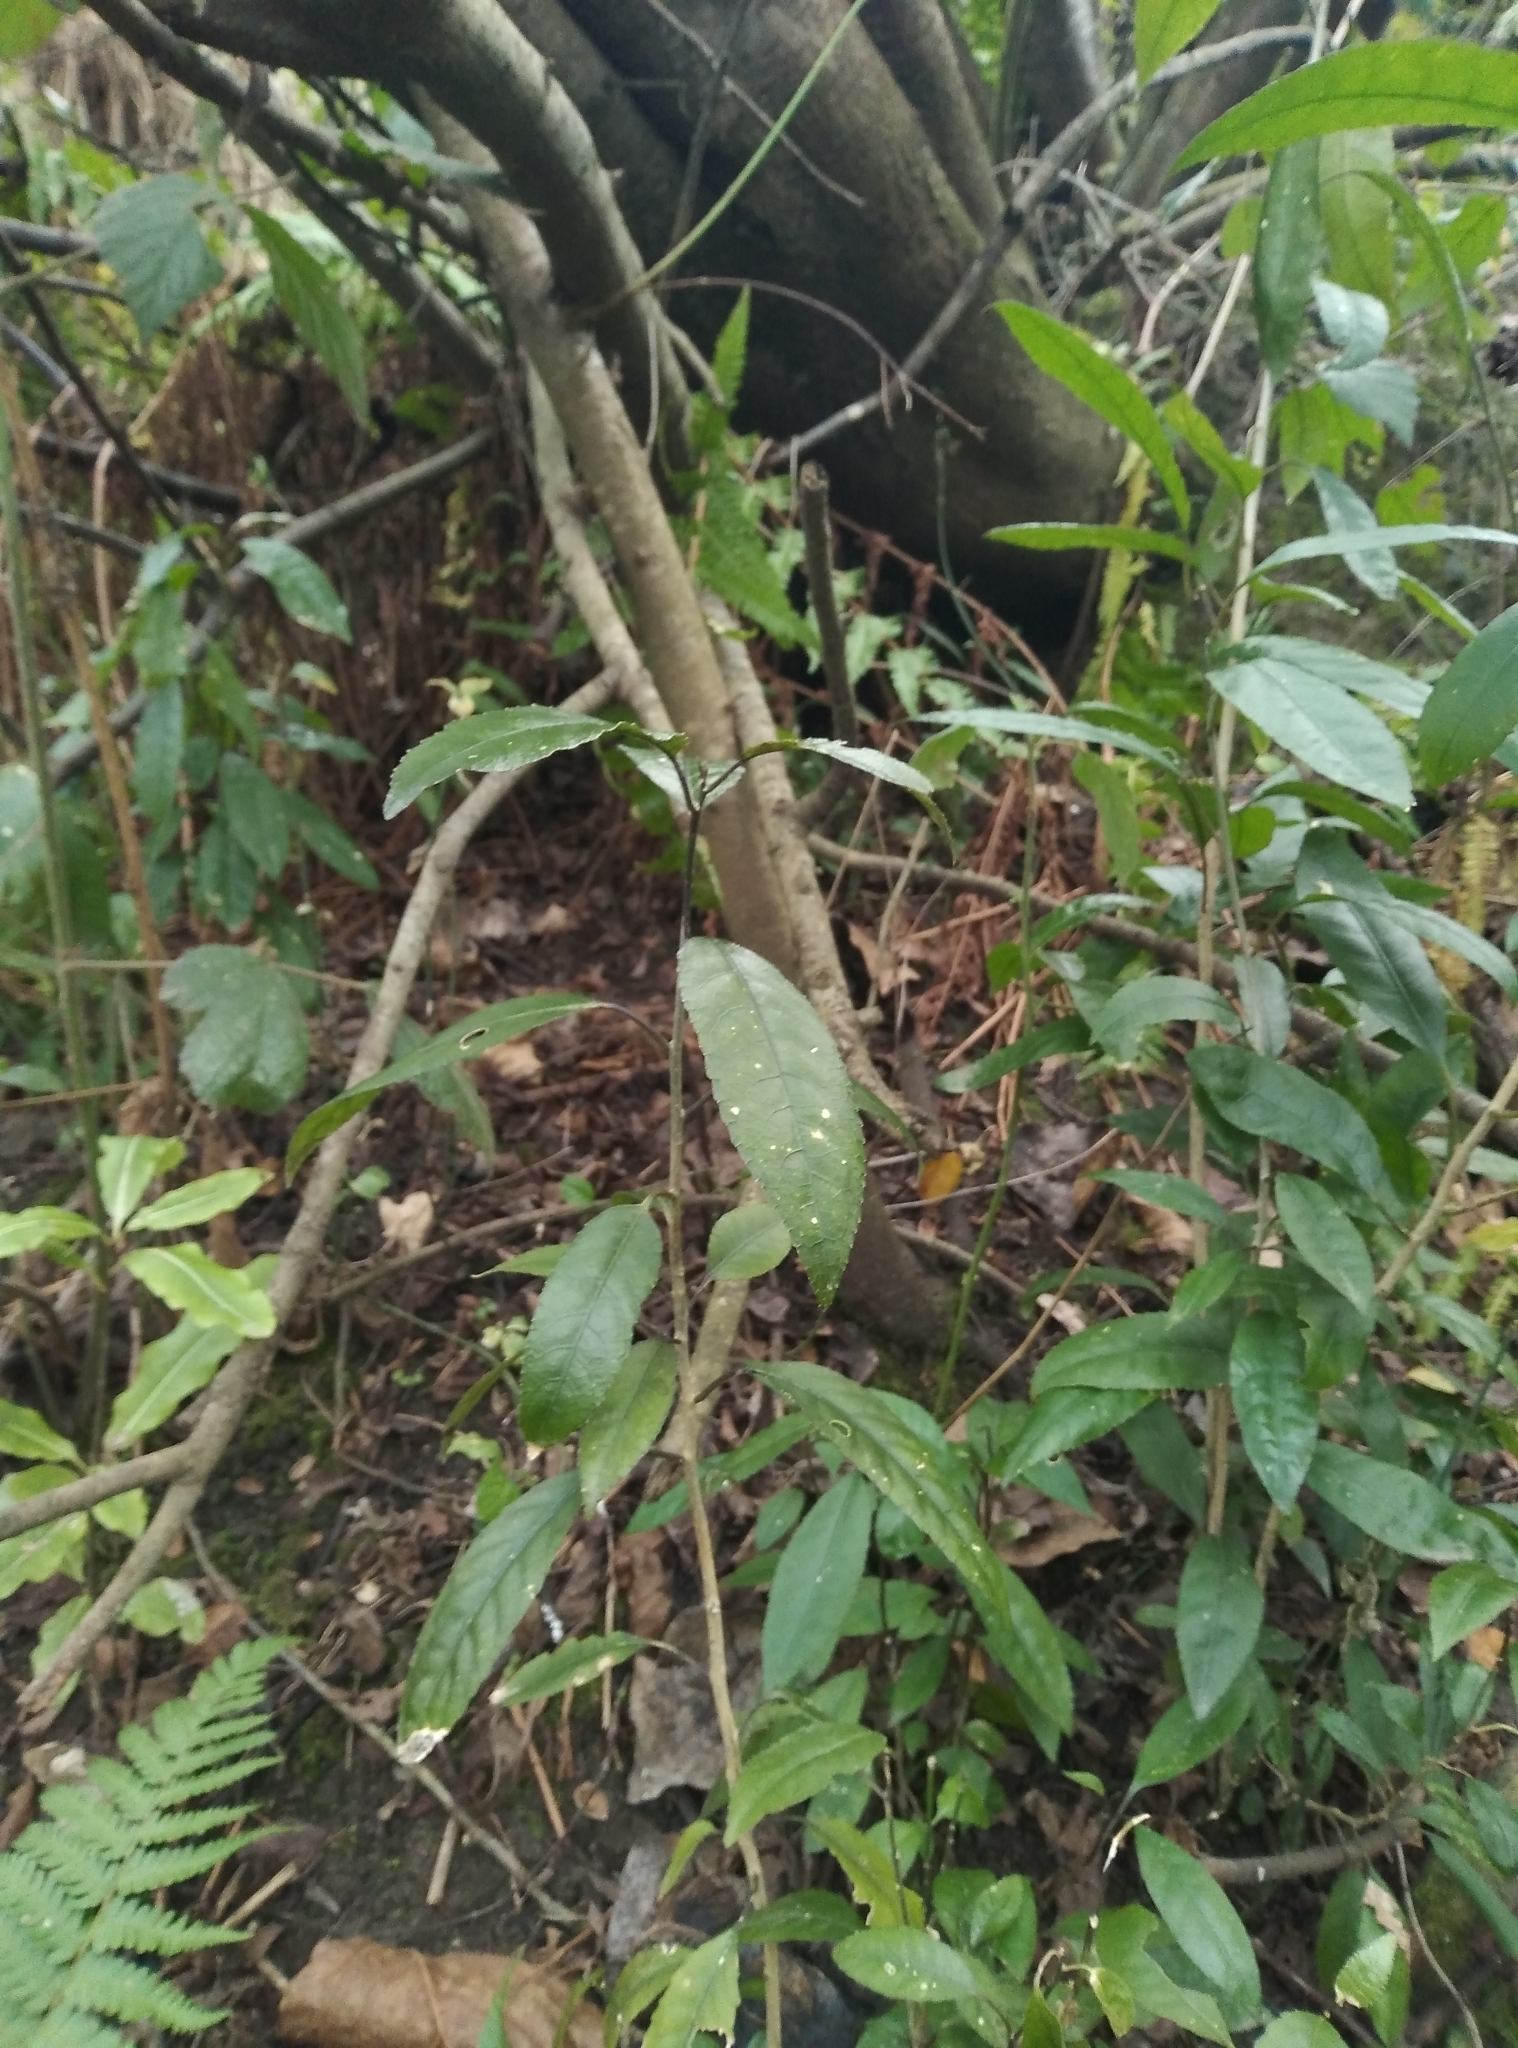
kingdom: Plantae
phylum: Tracheophyta
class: Magnoliopsida
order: Malpighiales
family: Violaceae
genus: Melicytus
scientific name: Melicytus ramiflorus
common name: Mahoe
